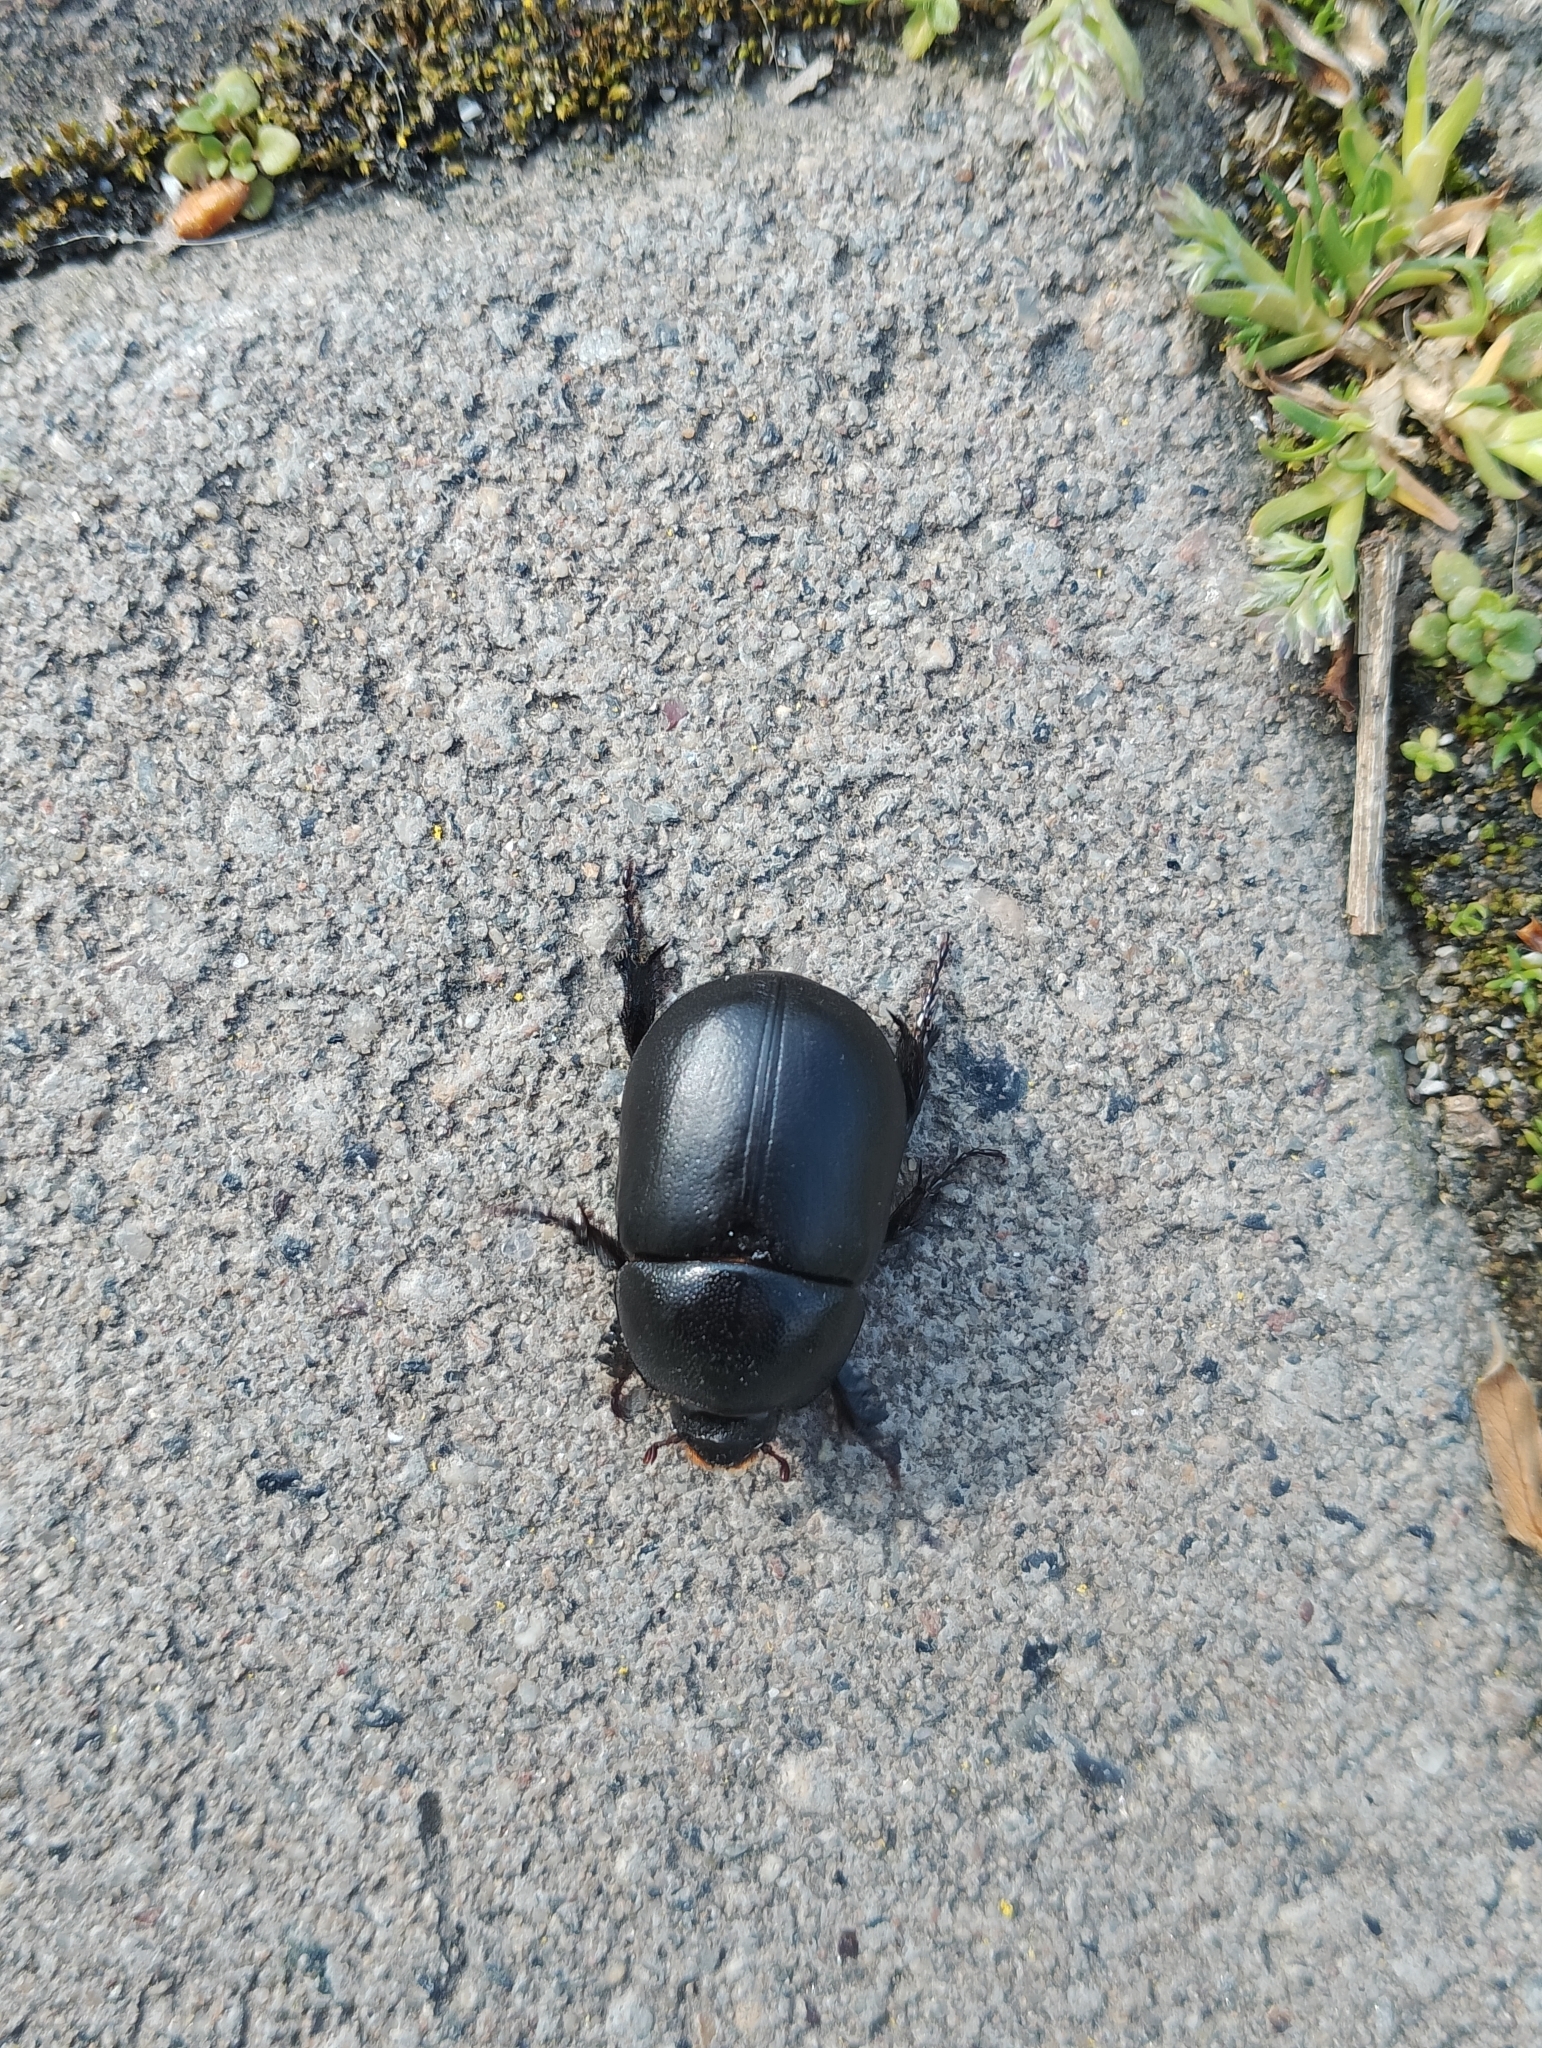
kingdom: Animalia
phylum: Arthropoda
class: Insecta
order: Coleoptera
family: Scarabaeidae
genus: Pentodon
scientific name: Pentodon idiota
